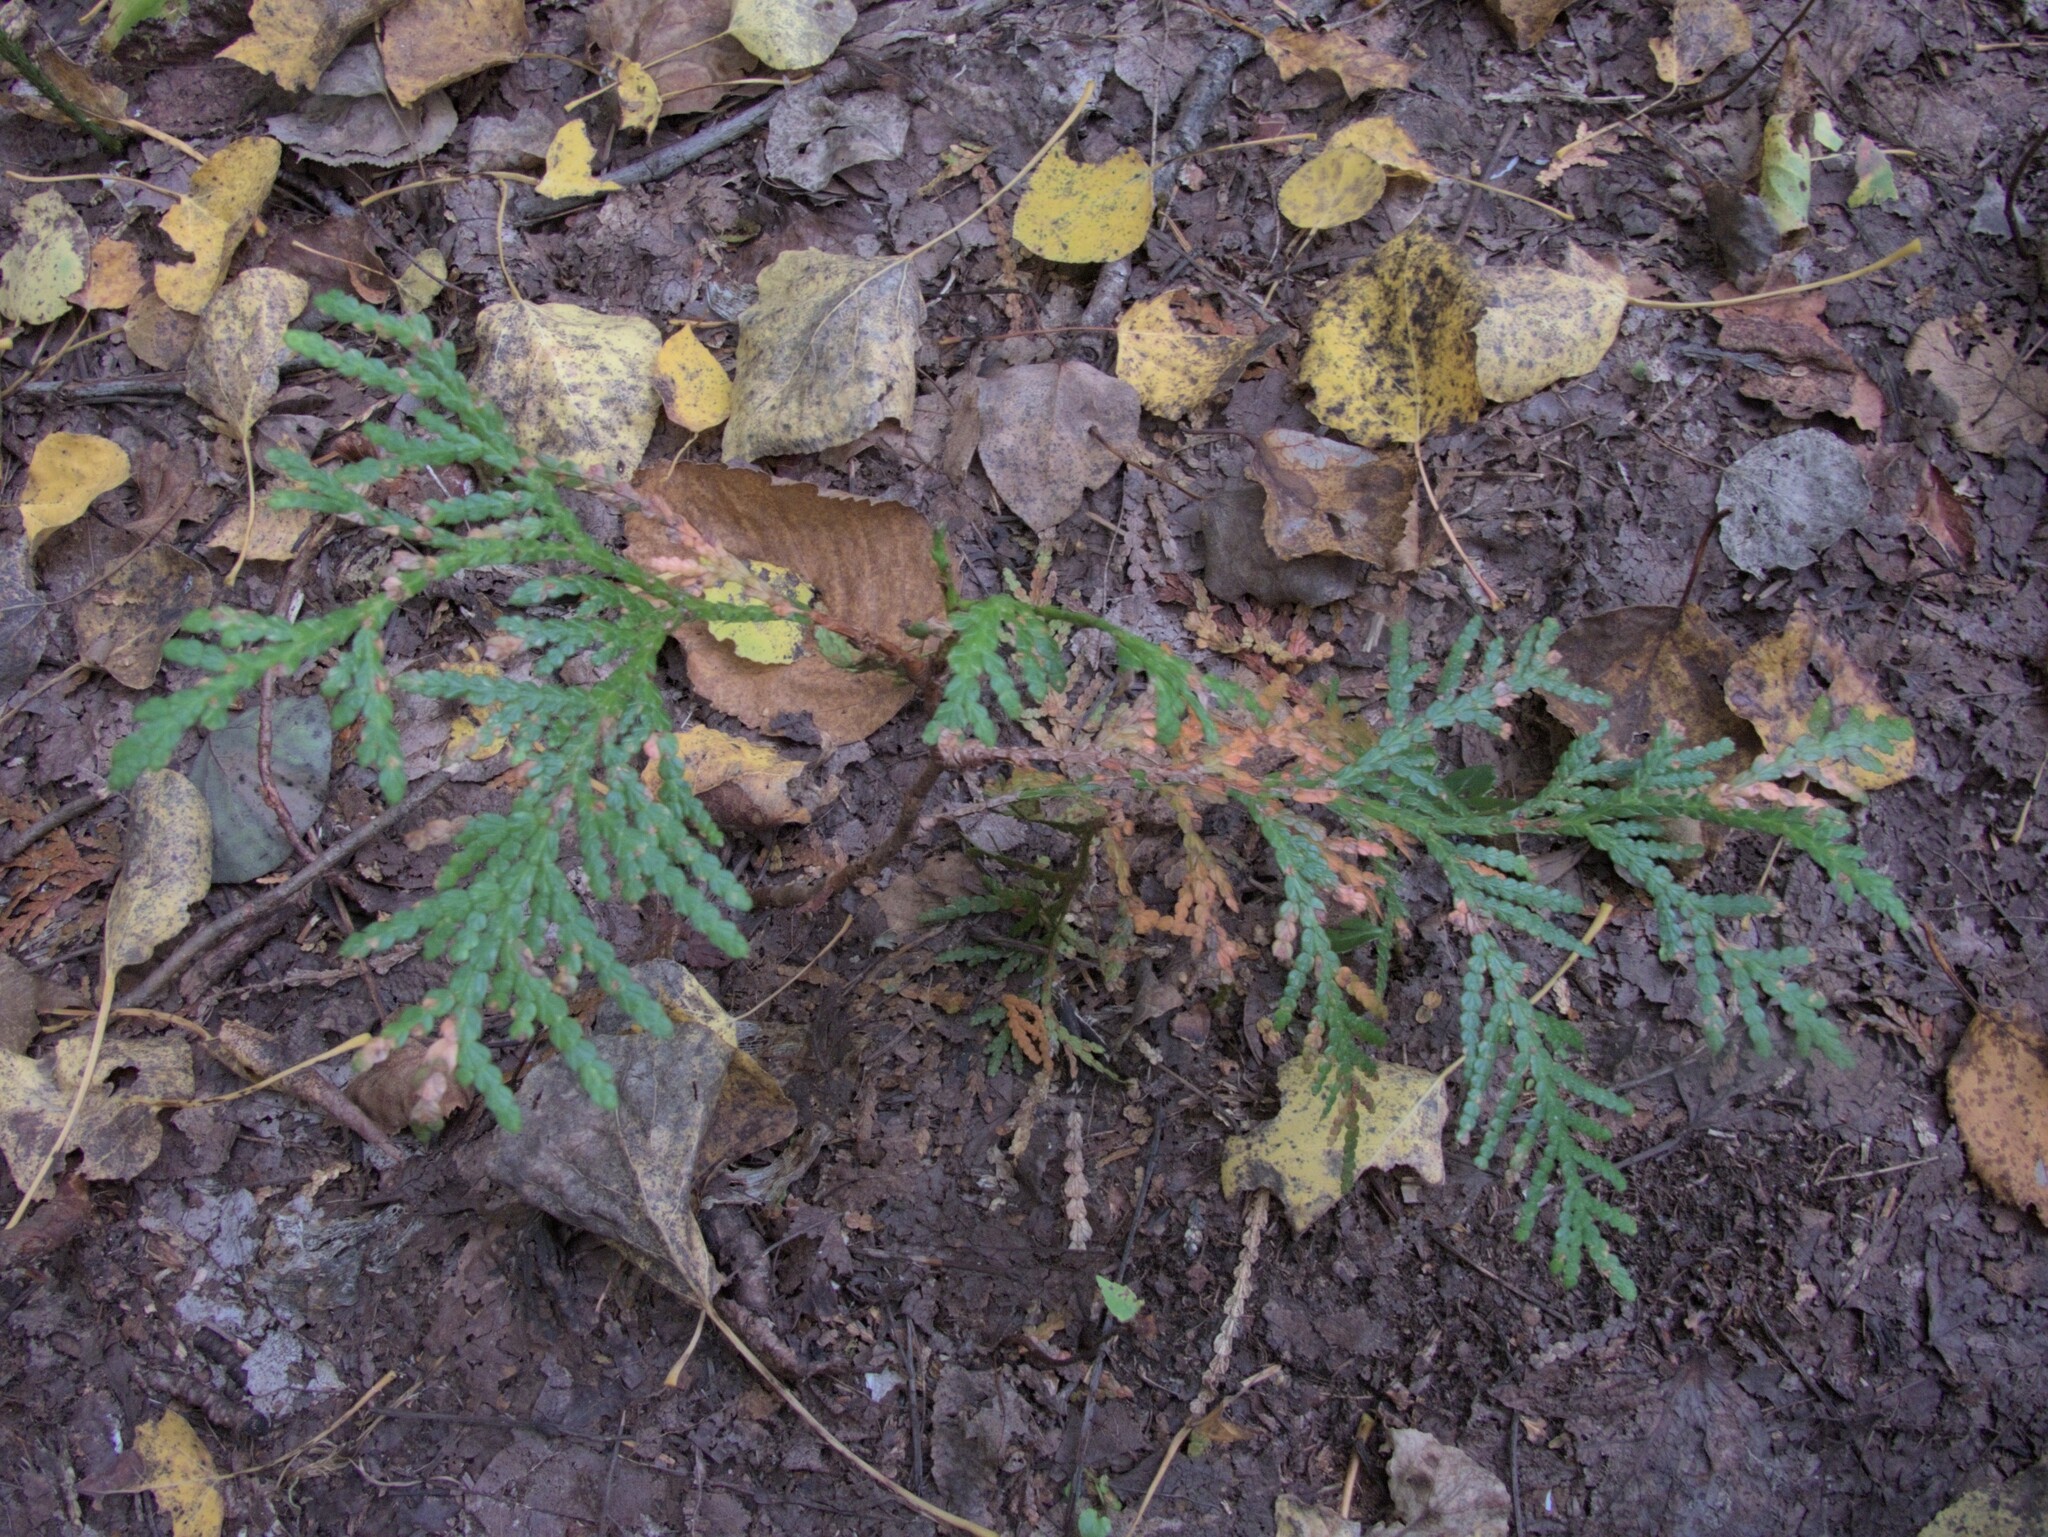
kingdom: Plantae
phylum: Tracheophyta
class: Pinopsida
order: Pinales
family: Cupressaceae
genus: Thuja
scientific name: Thuja occidentalis
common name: Northern white-cedar
